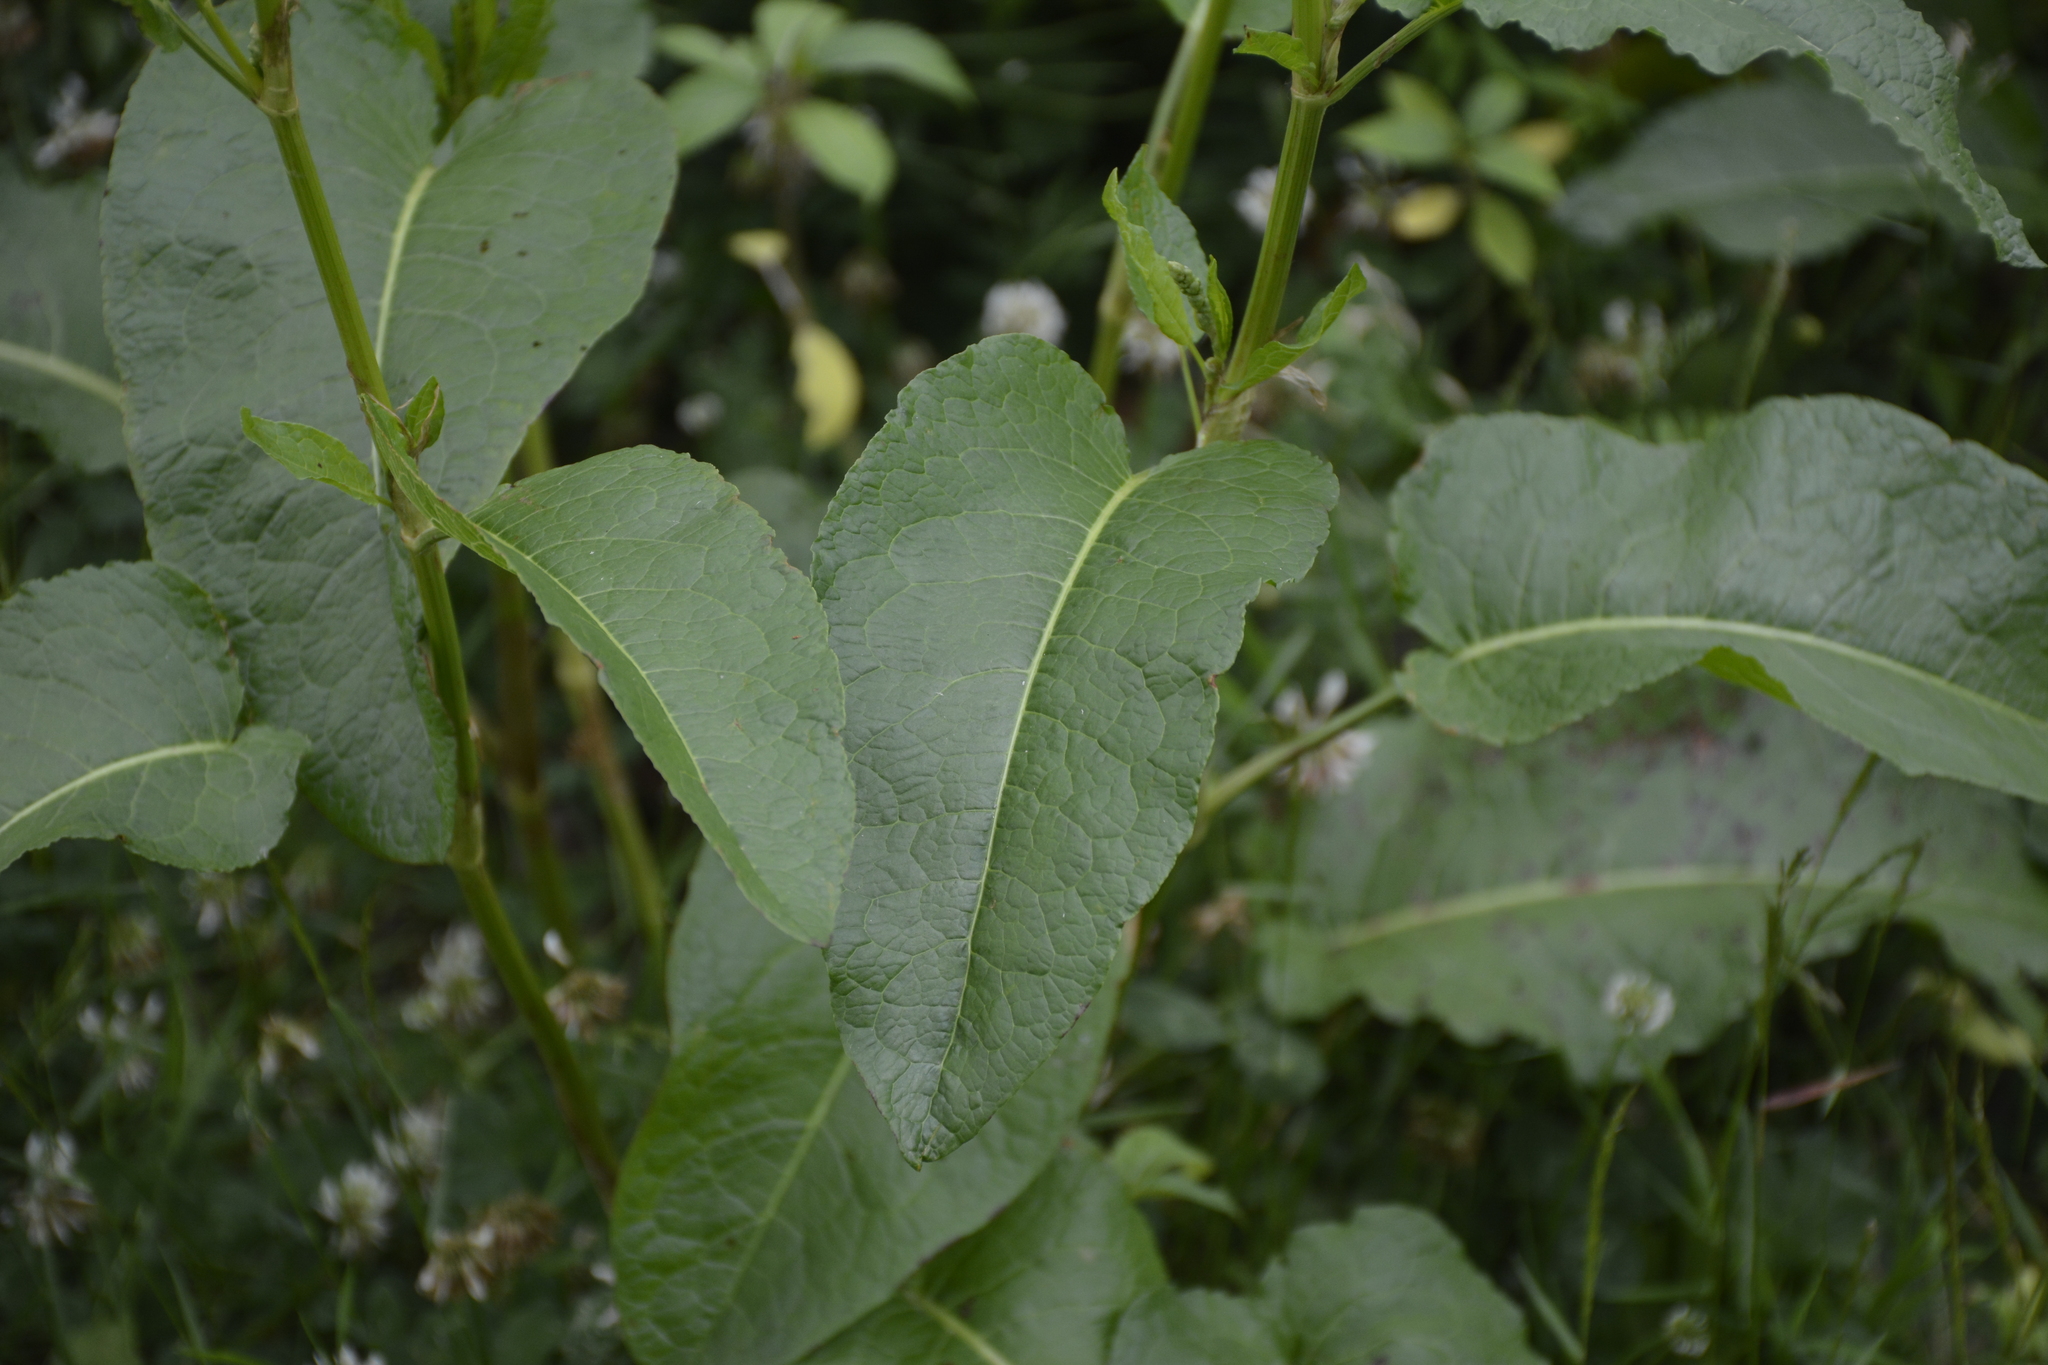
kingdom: Plantae
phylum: Tracheophyta
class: Magnoliopsida
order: Caryophyllales
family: Polygonaceae
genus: Rumex
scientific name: Rumex obtusifolius
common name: Bitter dock
